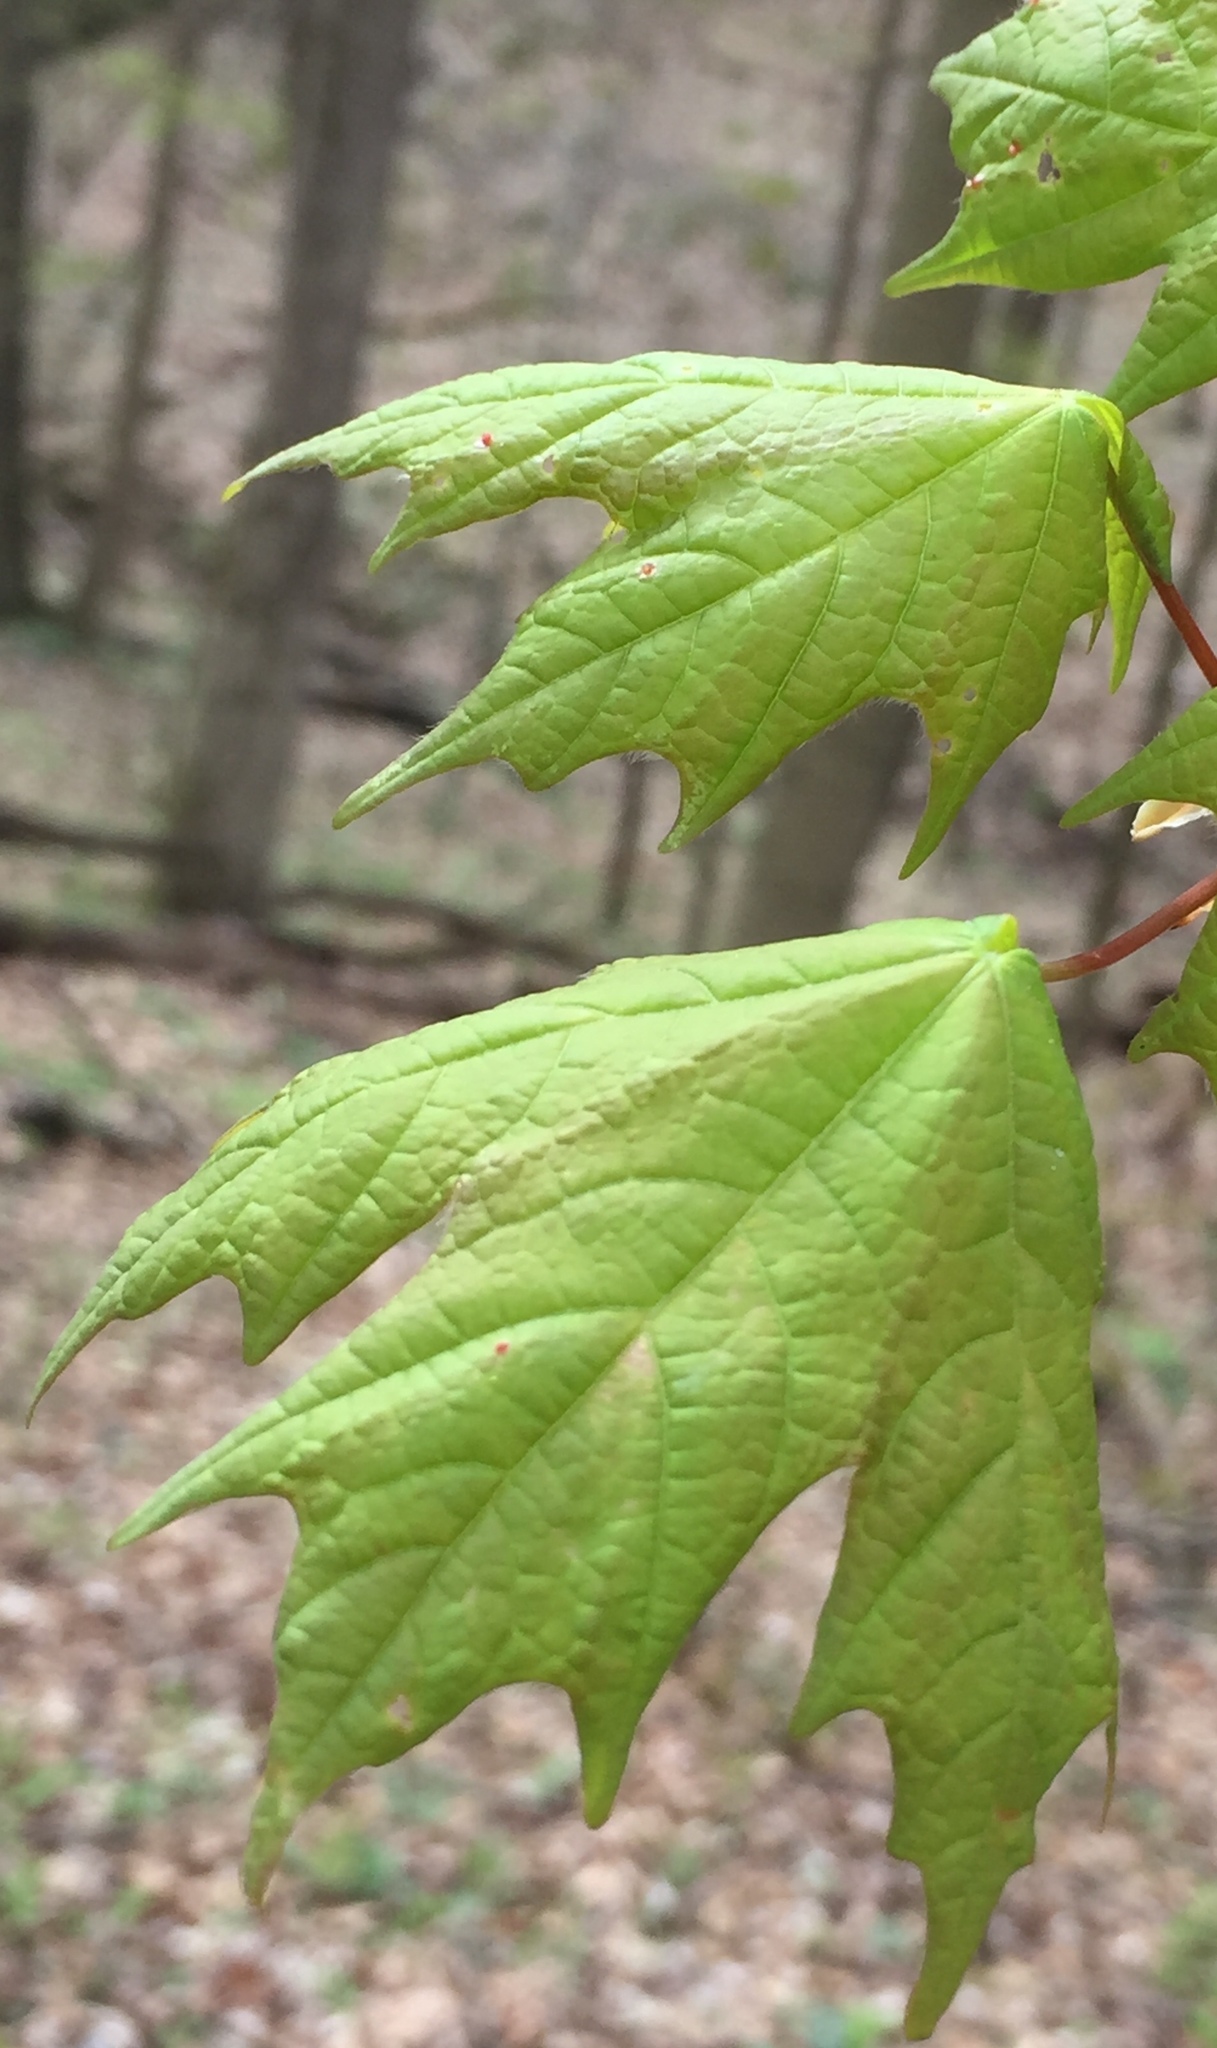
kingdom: Plantae
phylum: Tracheophyta
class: Magnoliopsida
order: Sapindales
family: Sapindaceae
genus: Acer
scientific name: Acer saccharum
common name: Sugar maple
